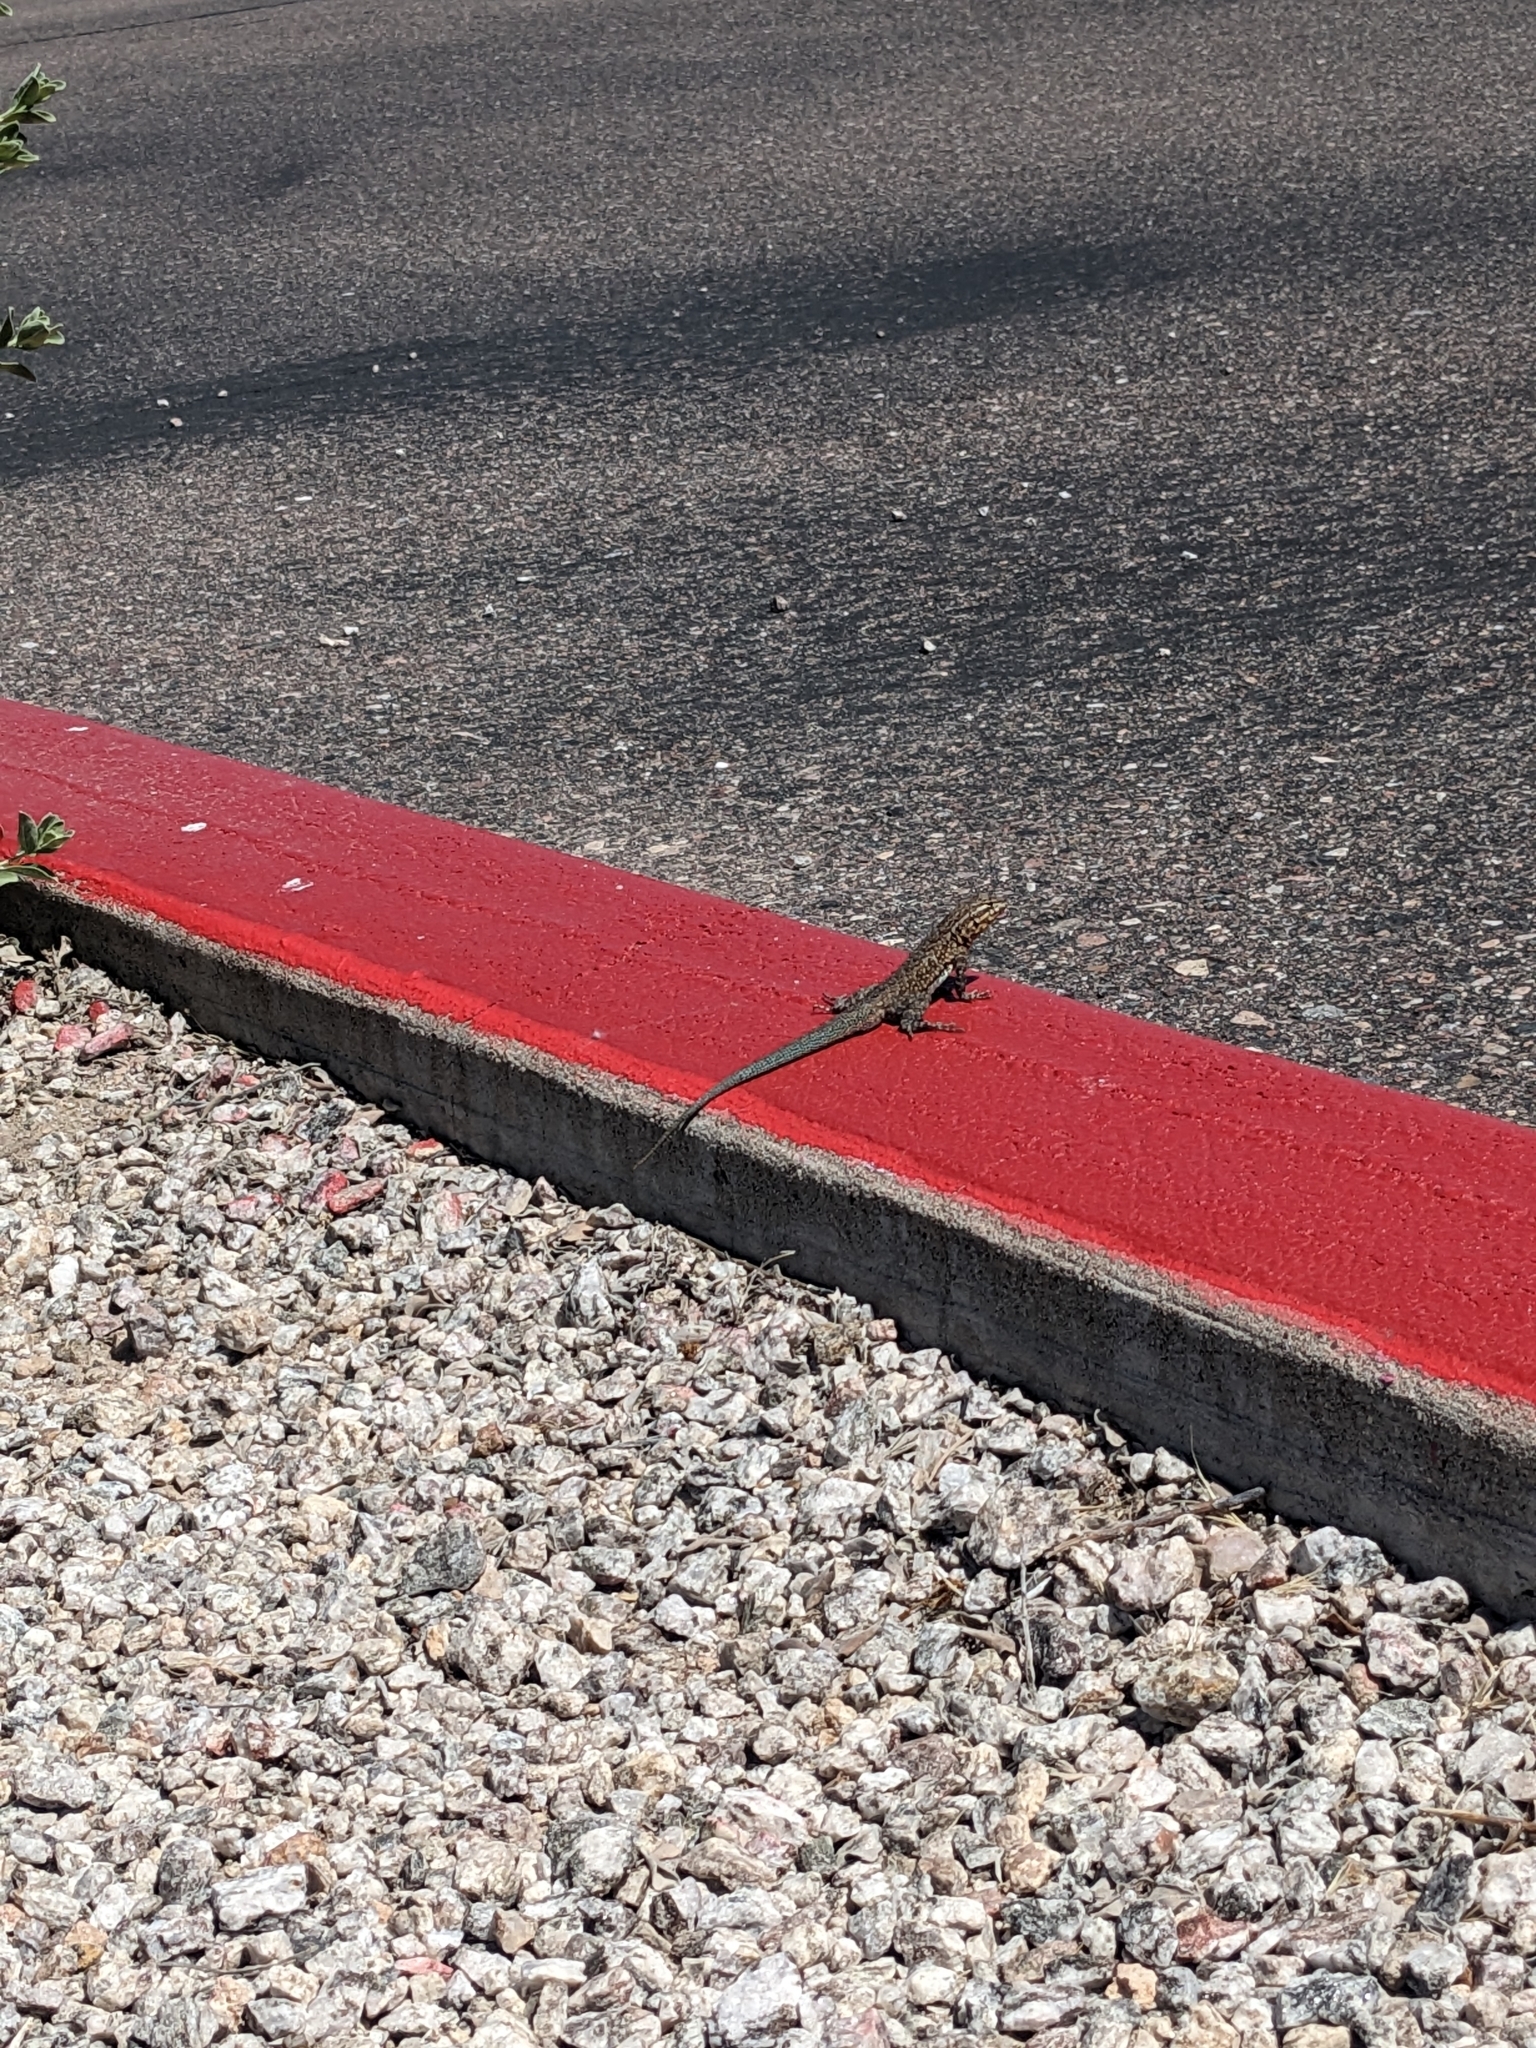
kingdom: Animalia
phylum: Chordata
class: Squamata
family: Phrynosomatidae
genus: Uta
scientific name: Uta stansburiana
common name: Side-blotched lizard
